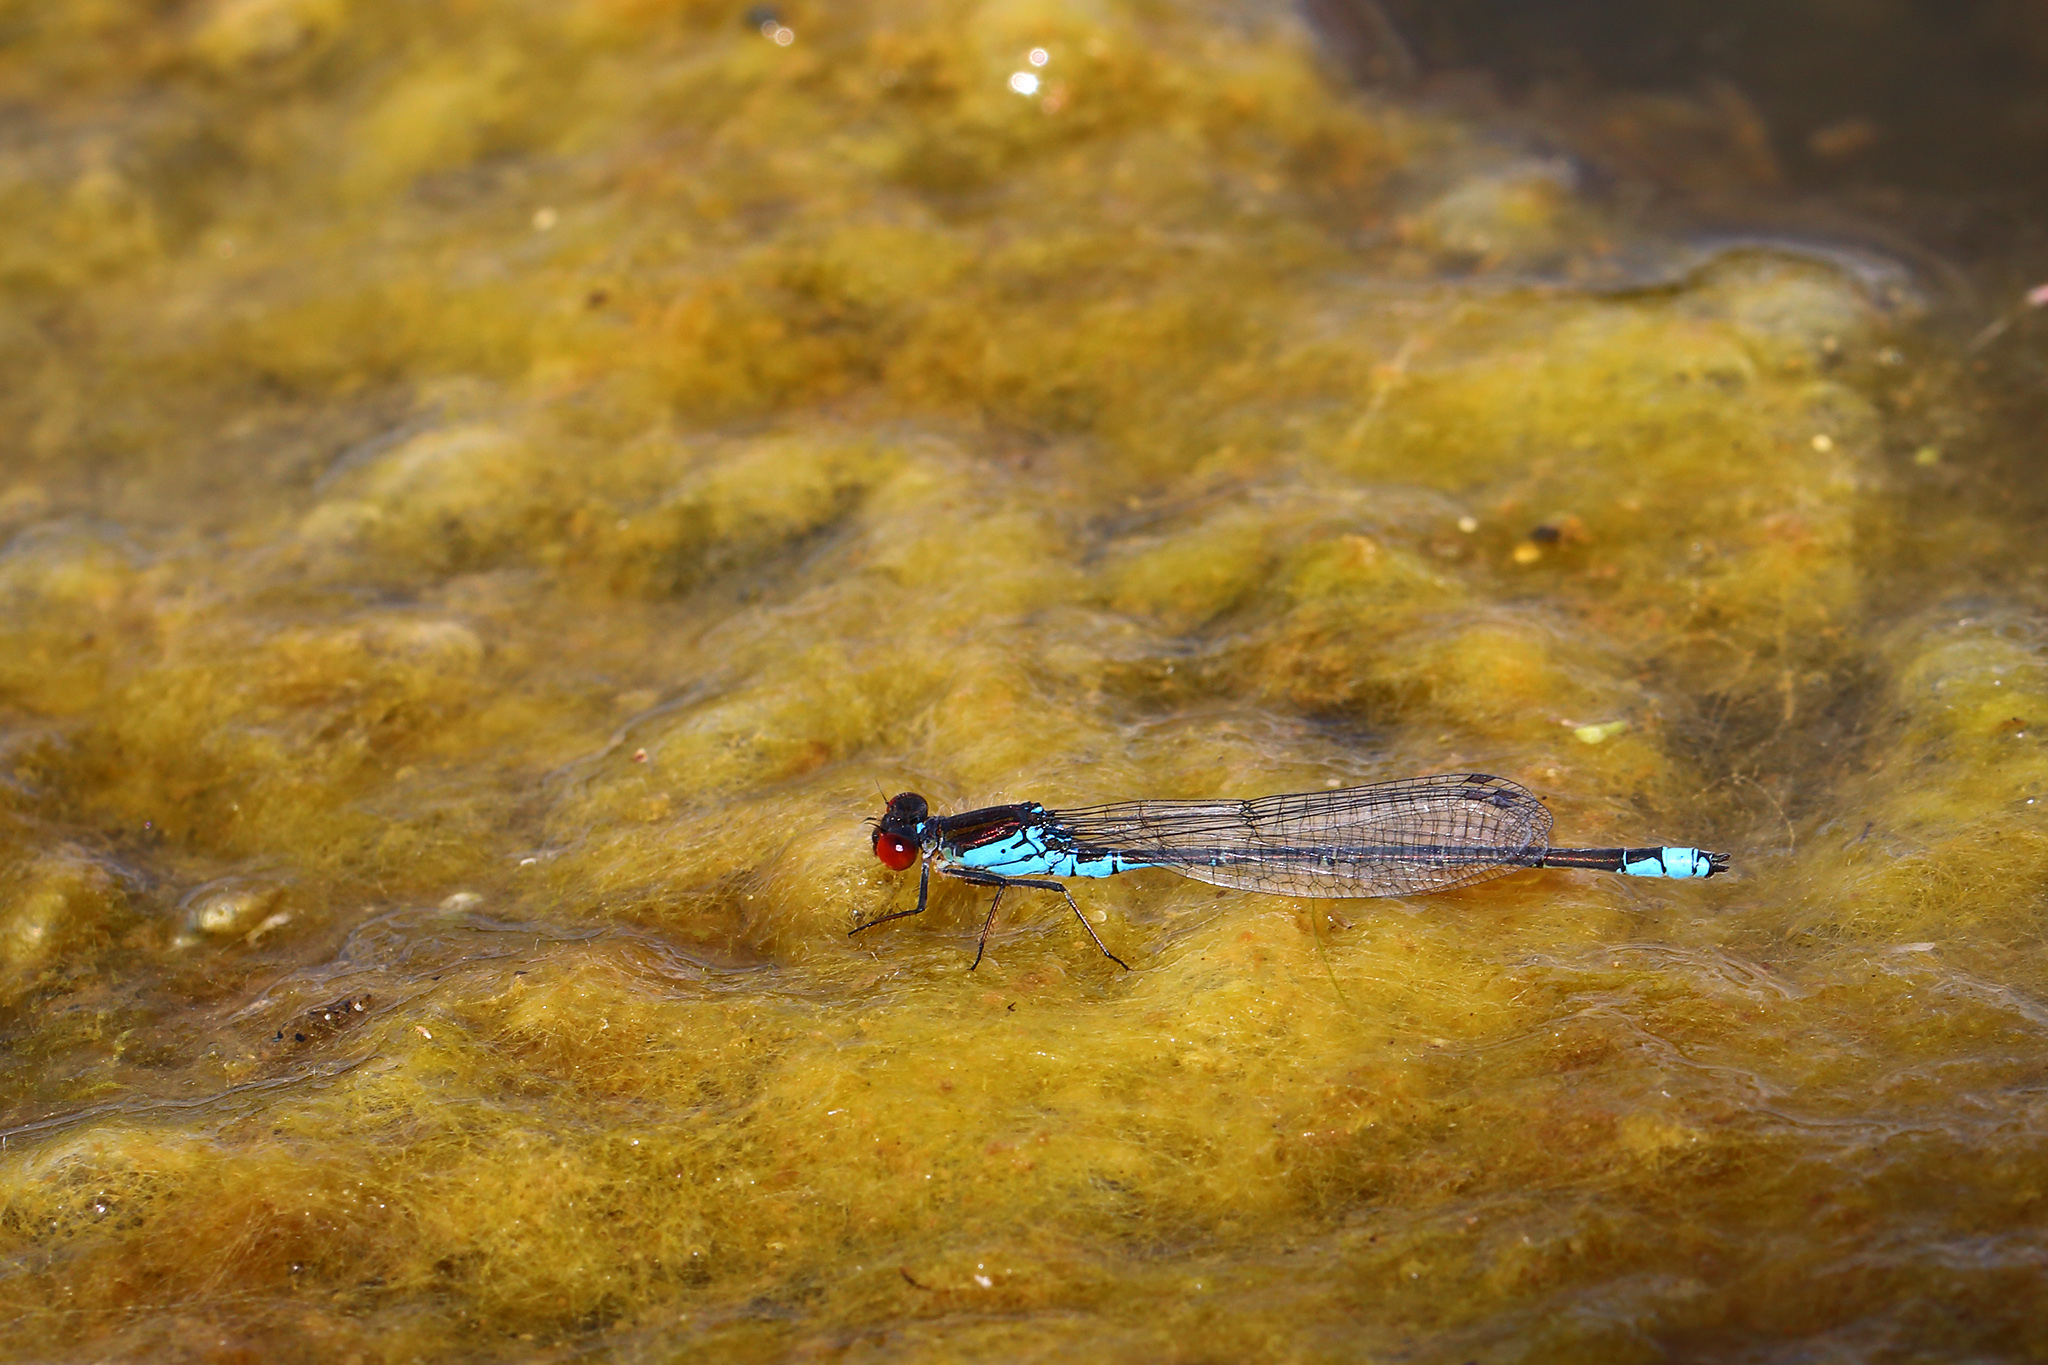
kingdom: Animalia
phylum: Arthropoda
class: Insecta
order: Odonata
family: Coenagrionidae
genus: Erythromma
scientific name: Erythromma viridulum
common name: Small red-eyed damselfly
